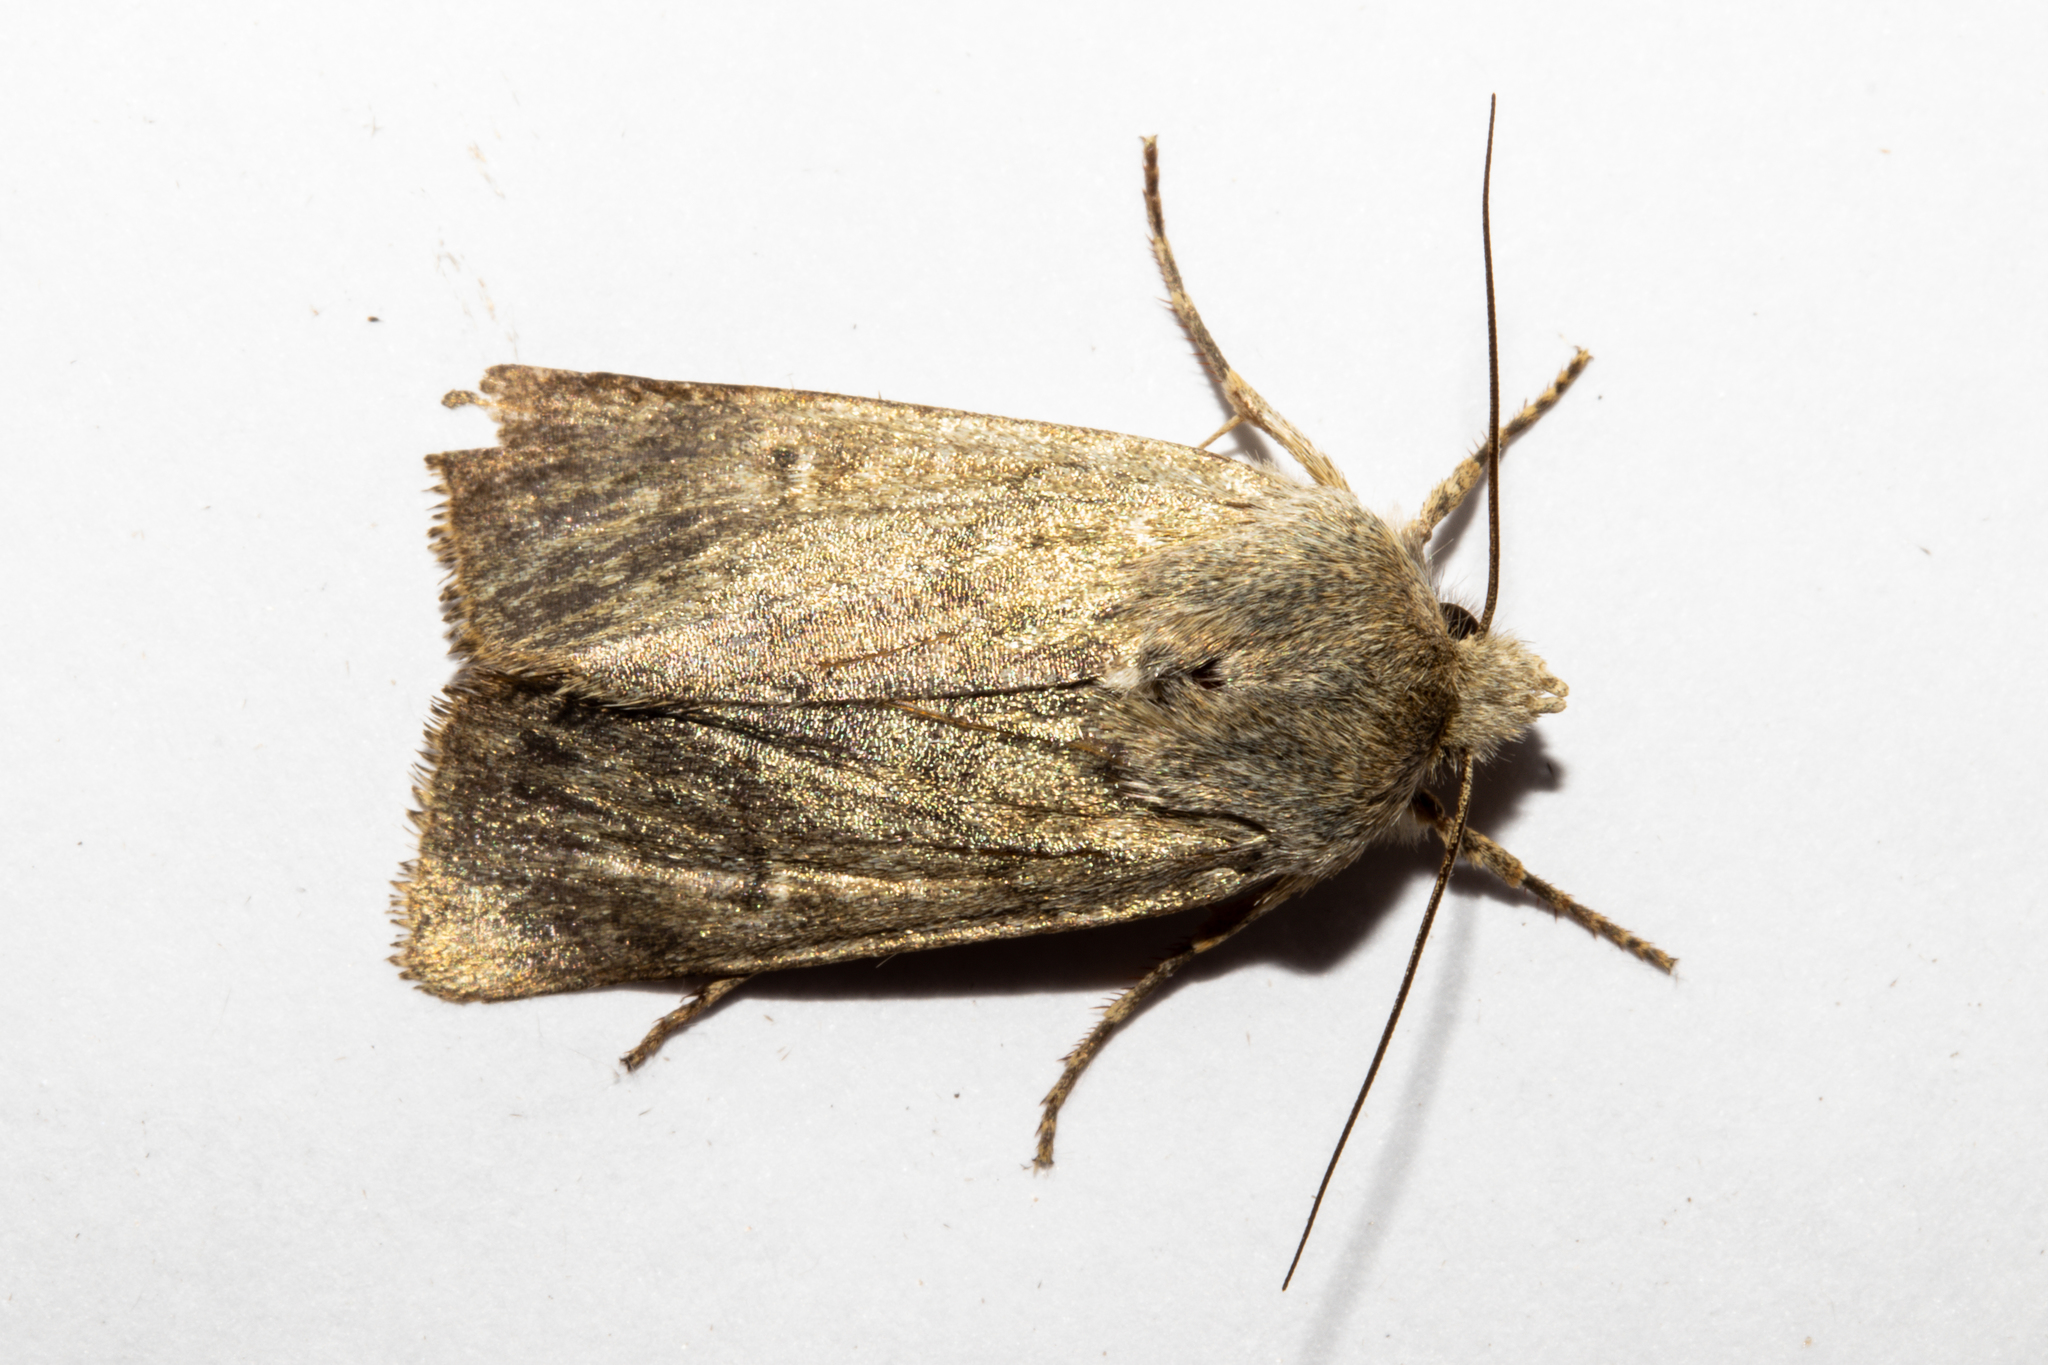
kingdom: Animalia
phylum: Arthropoda
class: Insecta
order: Lepidoptera
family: Noctuidae
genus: Physetica
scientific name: Physetica caerulea
